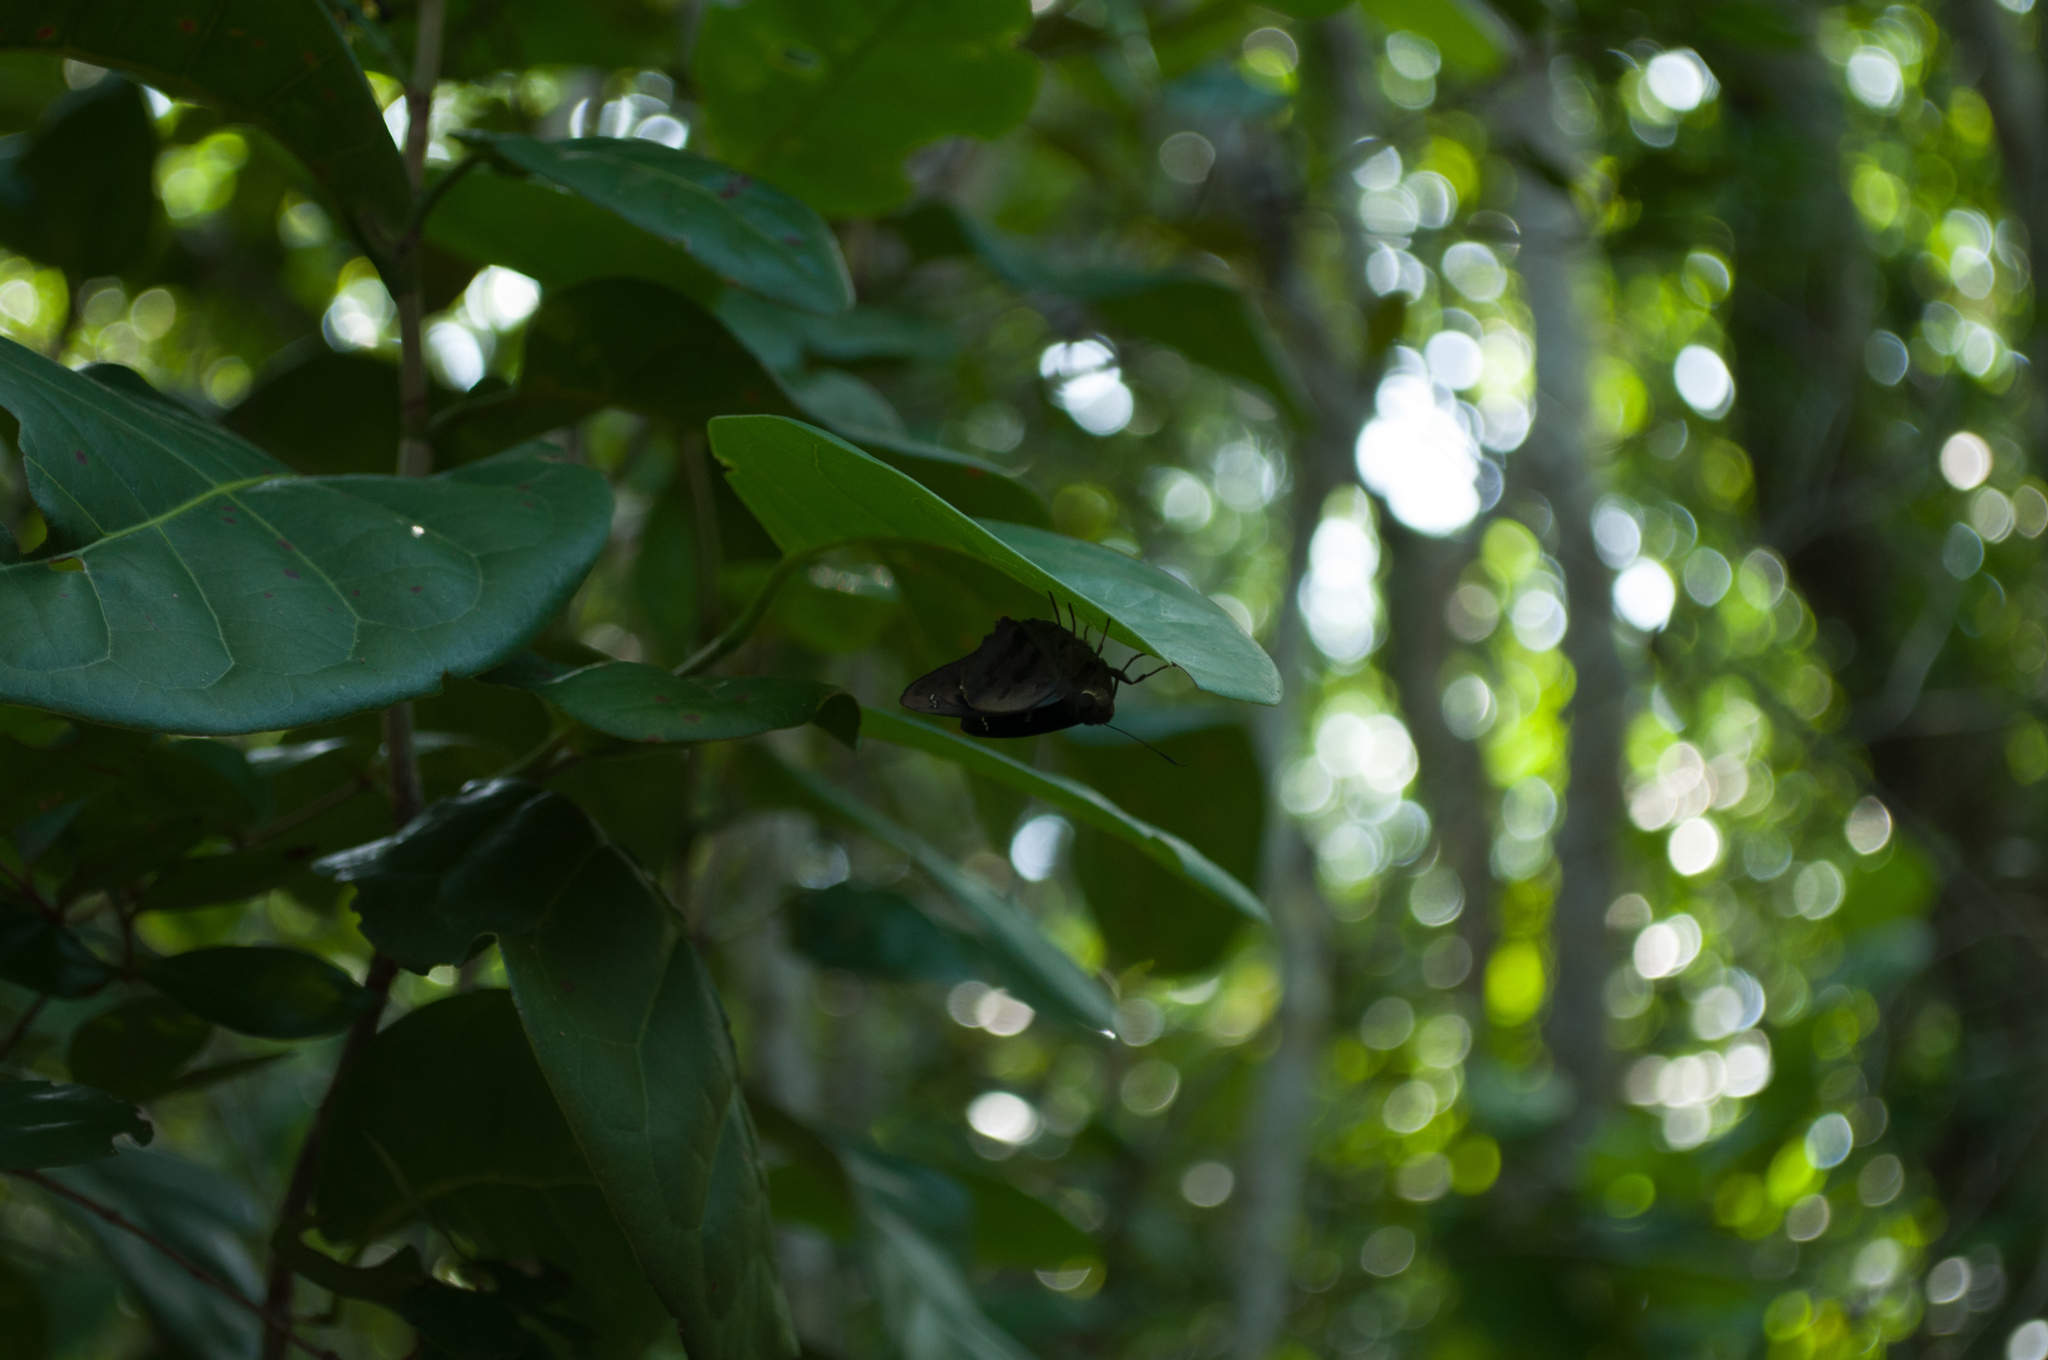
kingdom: Animalia
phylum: Arthropoda
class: Insecta
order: Lepidoptera
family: Hesperiidae
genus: Polygonus
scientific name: Polygonus leo
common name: Hammoch skipper
